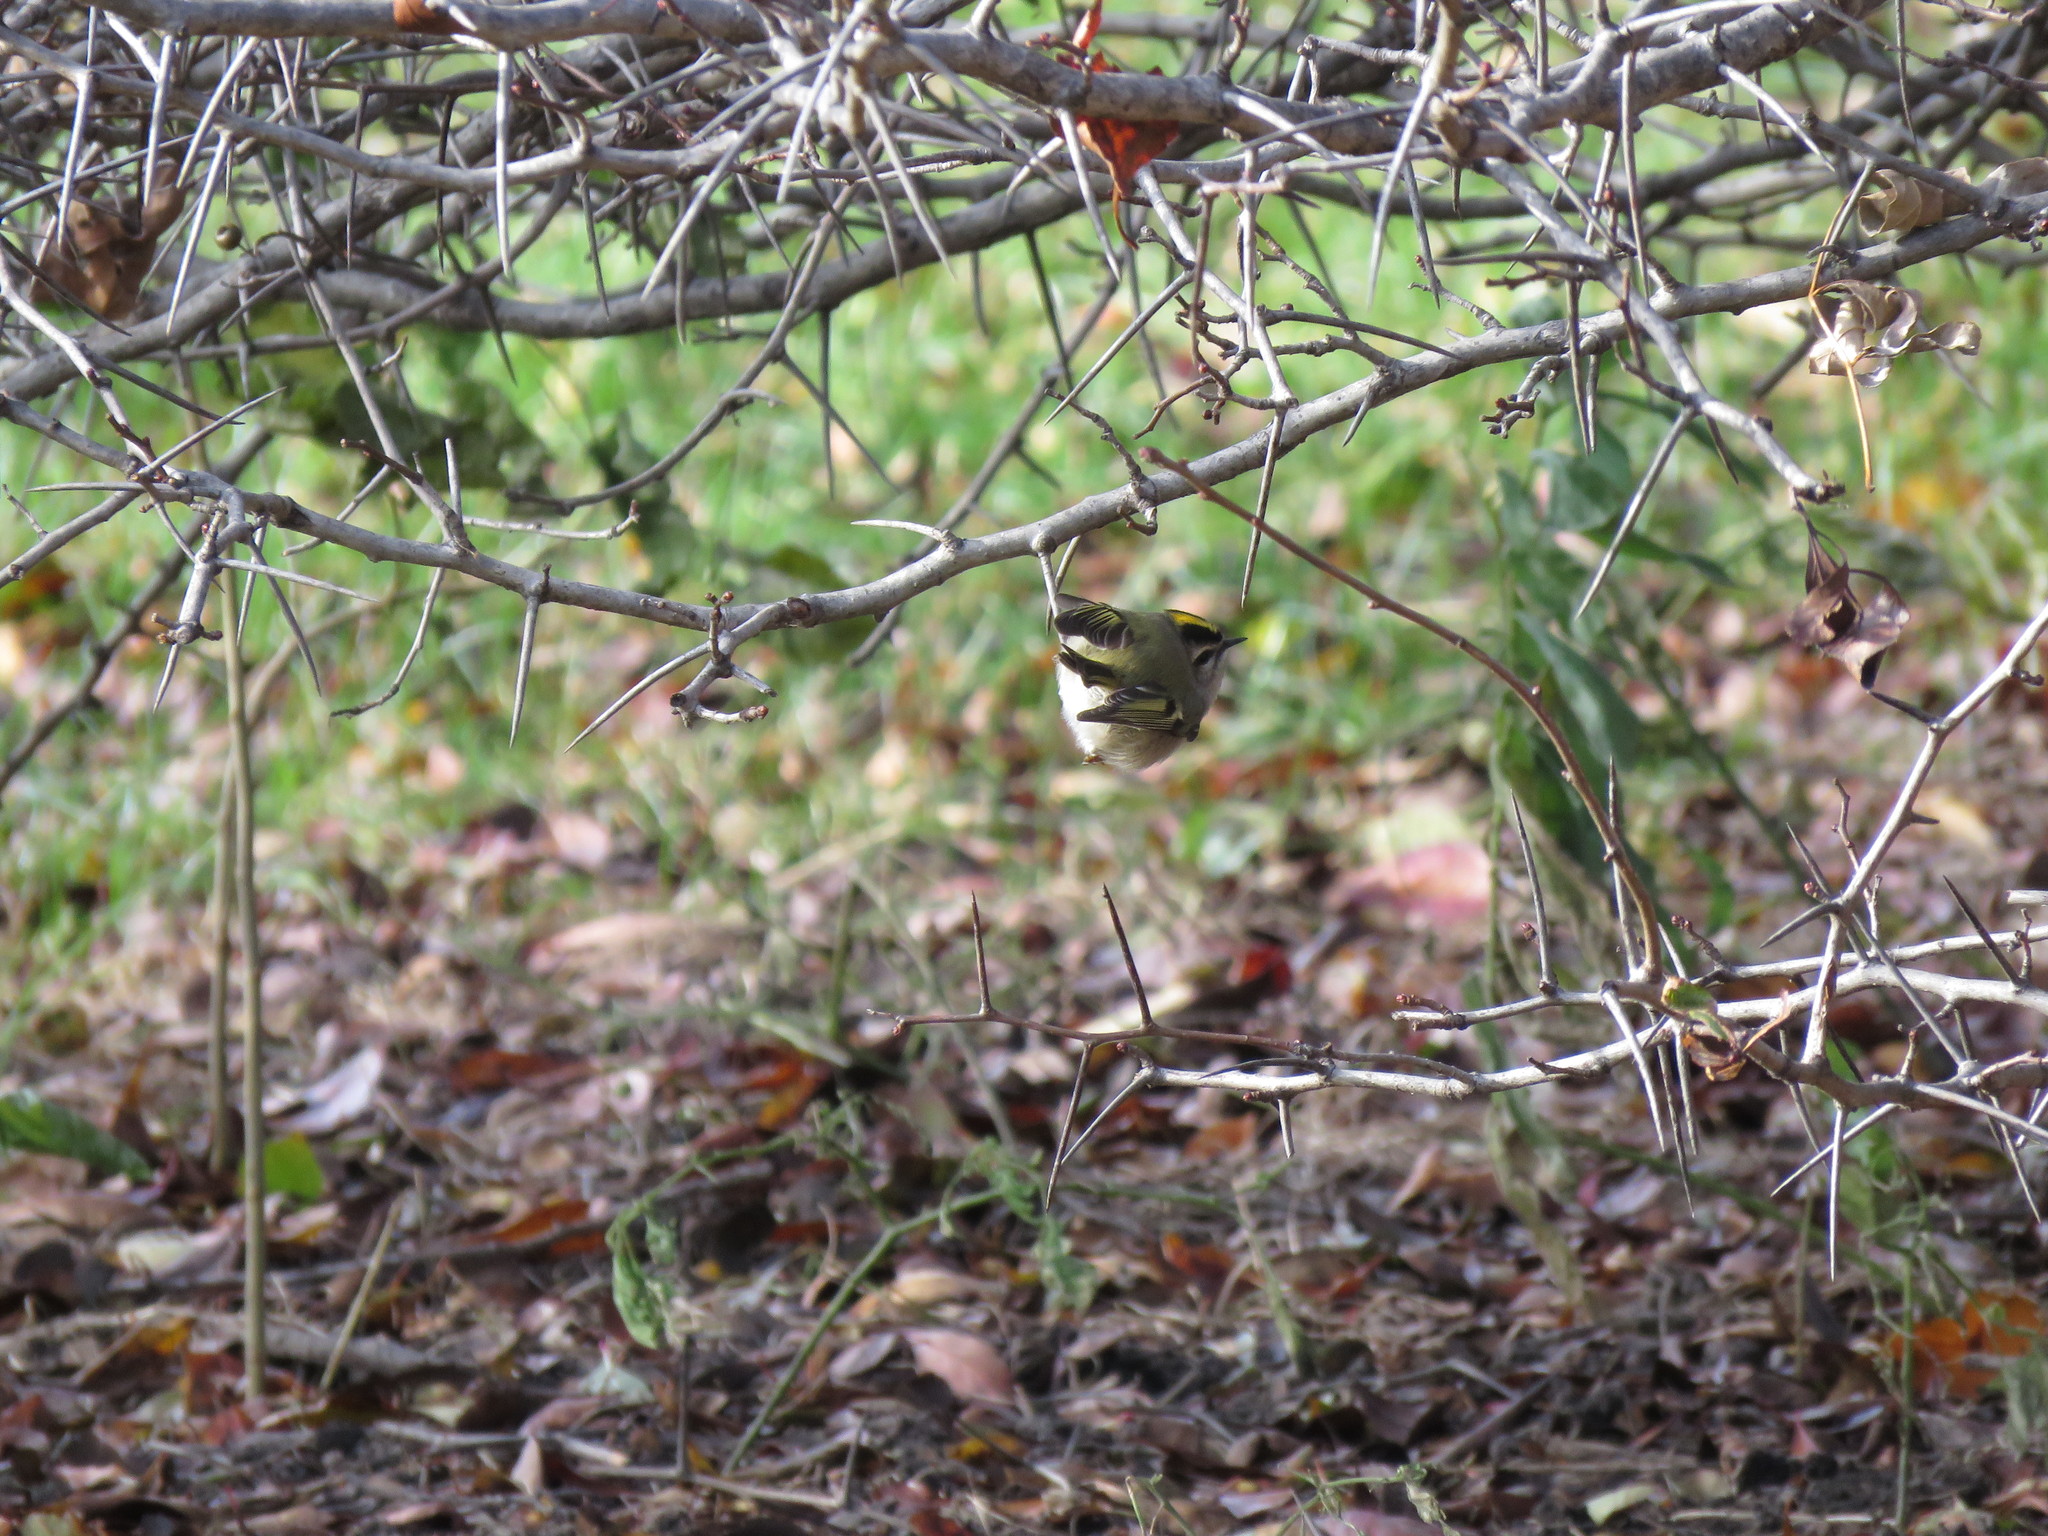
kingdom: Animalia
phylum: Chordata
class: Aves
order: Passeriformes
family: Regulidae
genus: Regulus
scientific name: Regulus satrapa
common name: Golden-crowned kinglet
